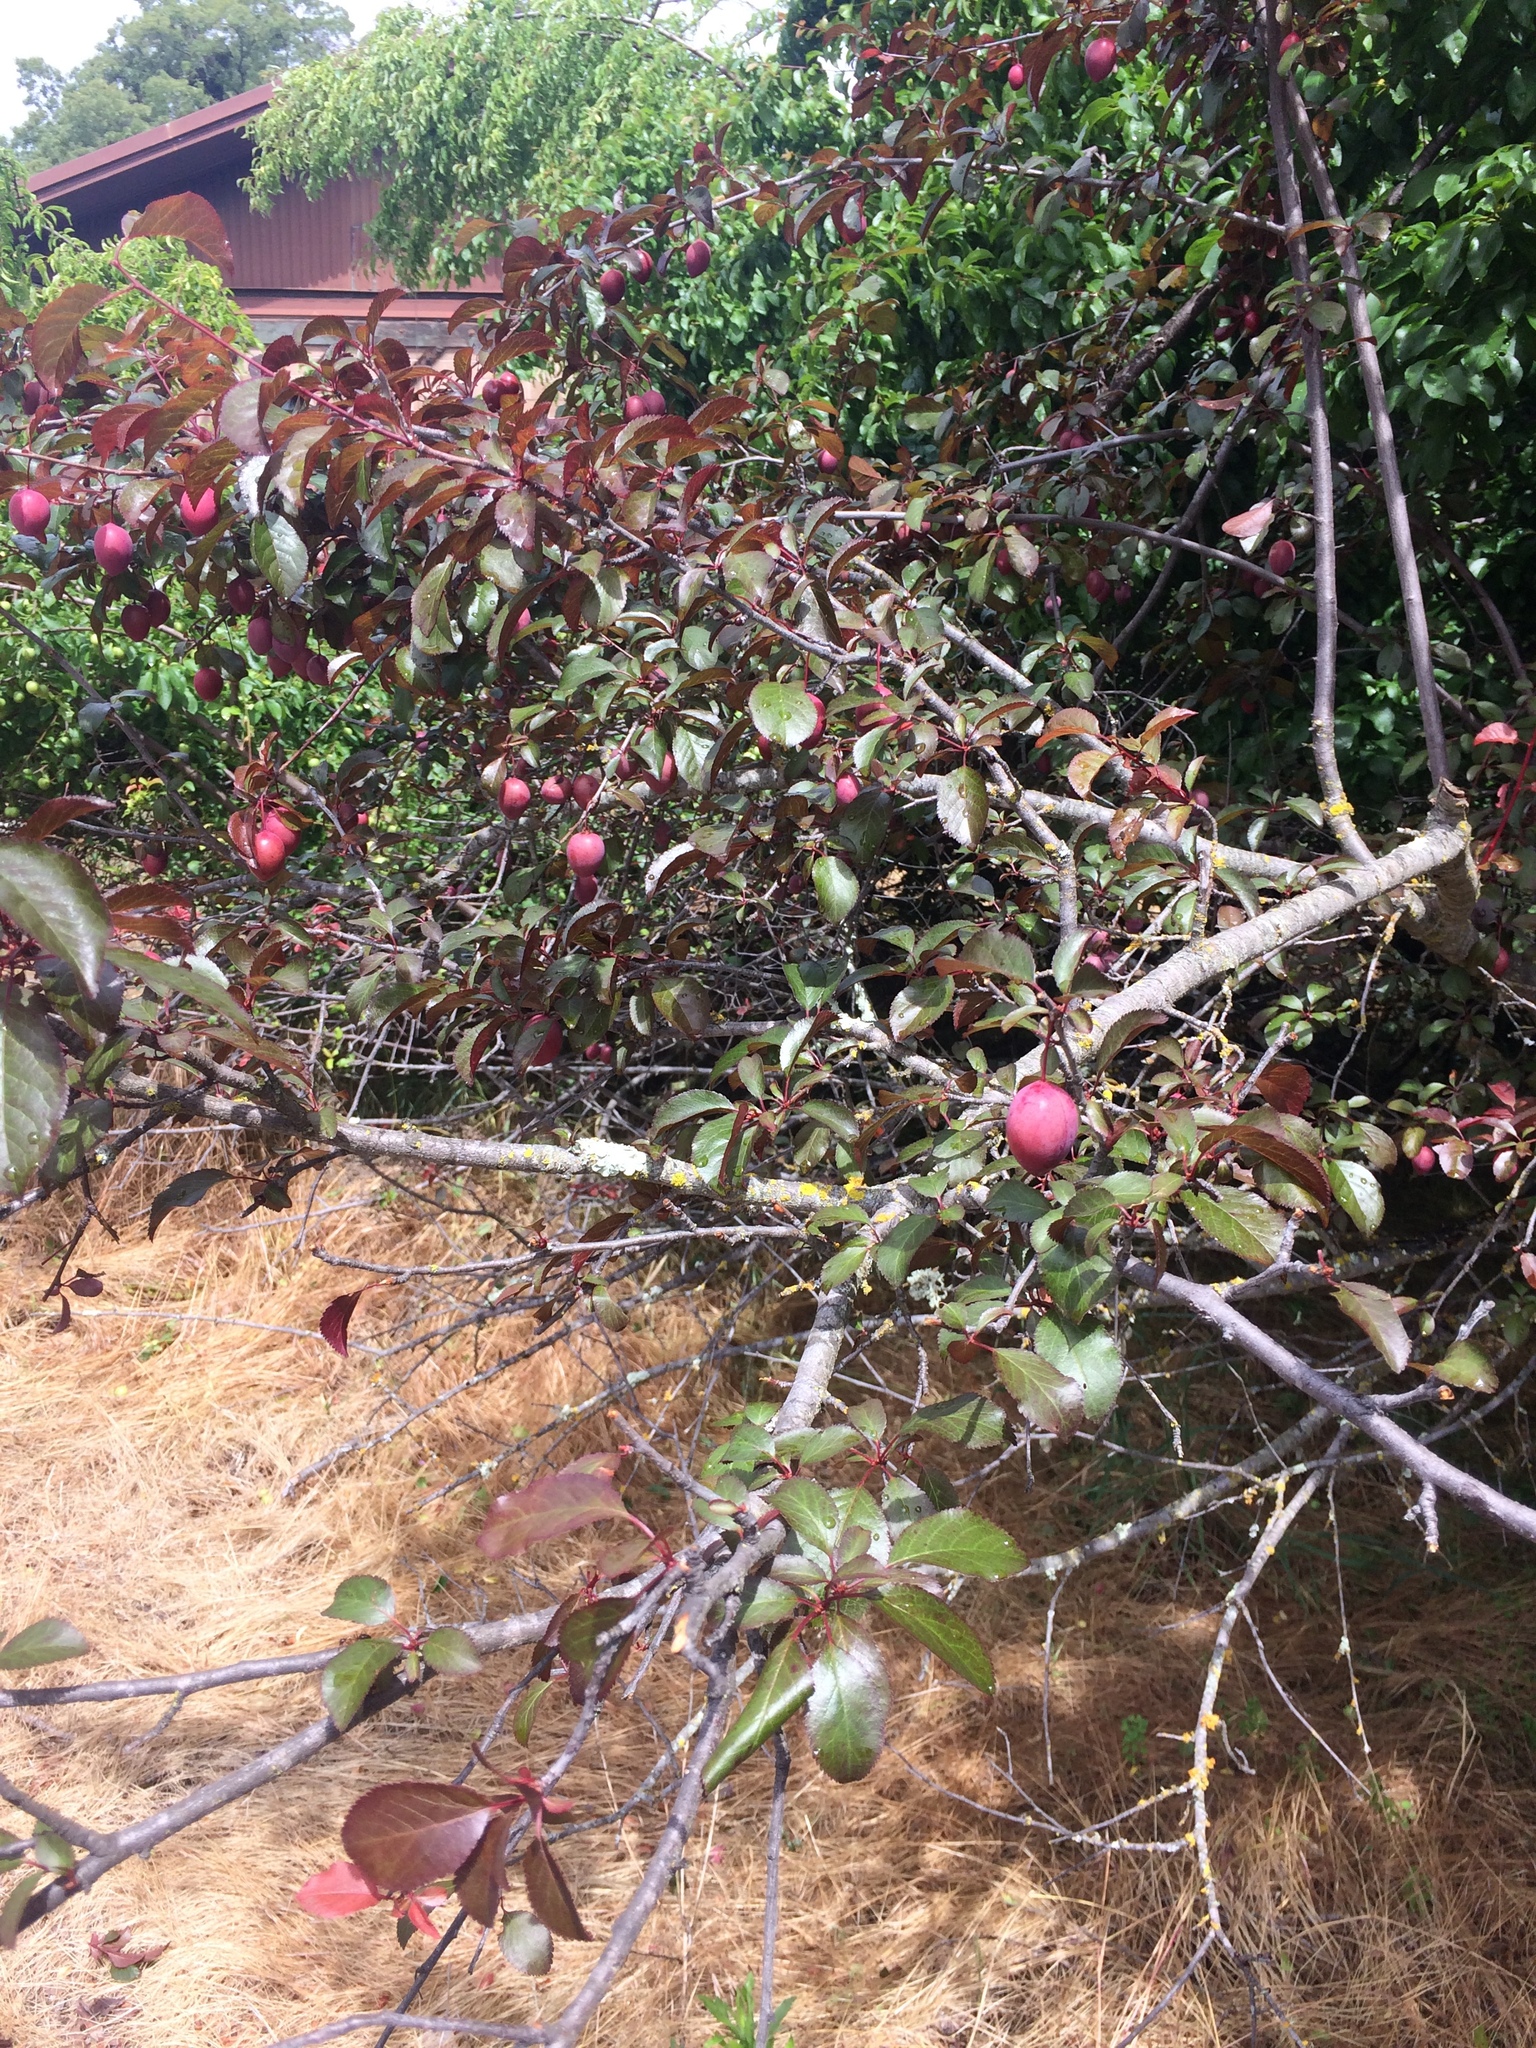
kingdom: Plantae
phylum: Tracheophyta
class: Magnoliopsida
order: Rosales
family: Rosaceae
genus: Prunus
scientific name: Prunus cerasifera
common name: Cherry plum
